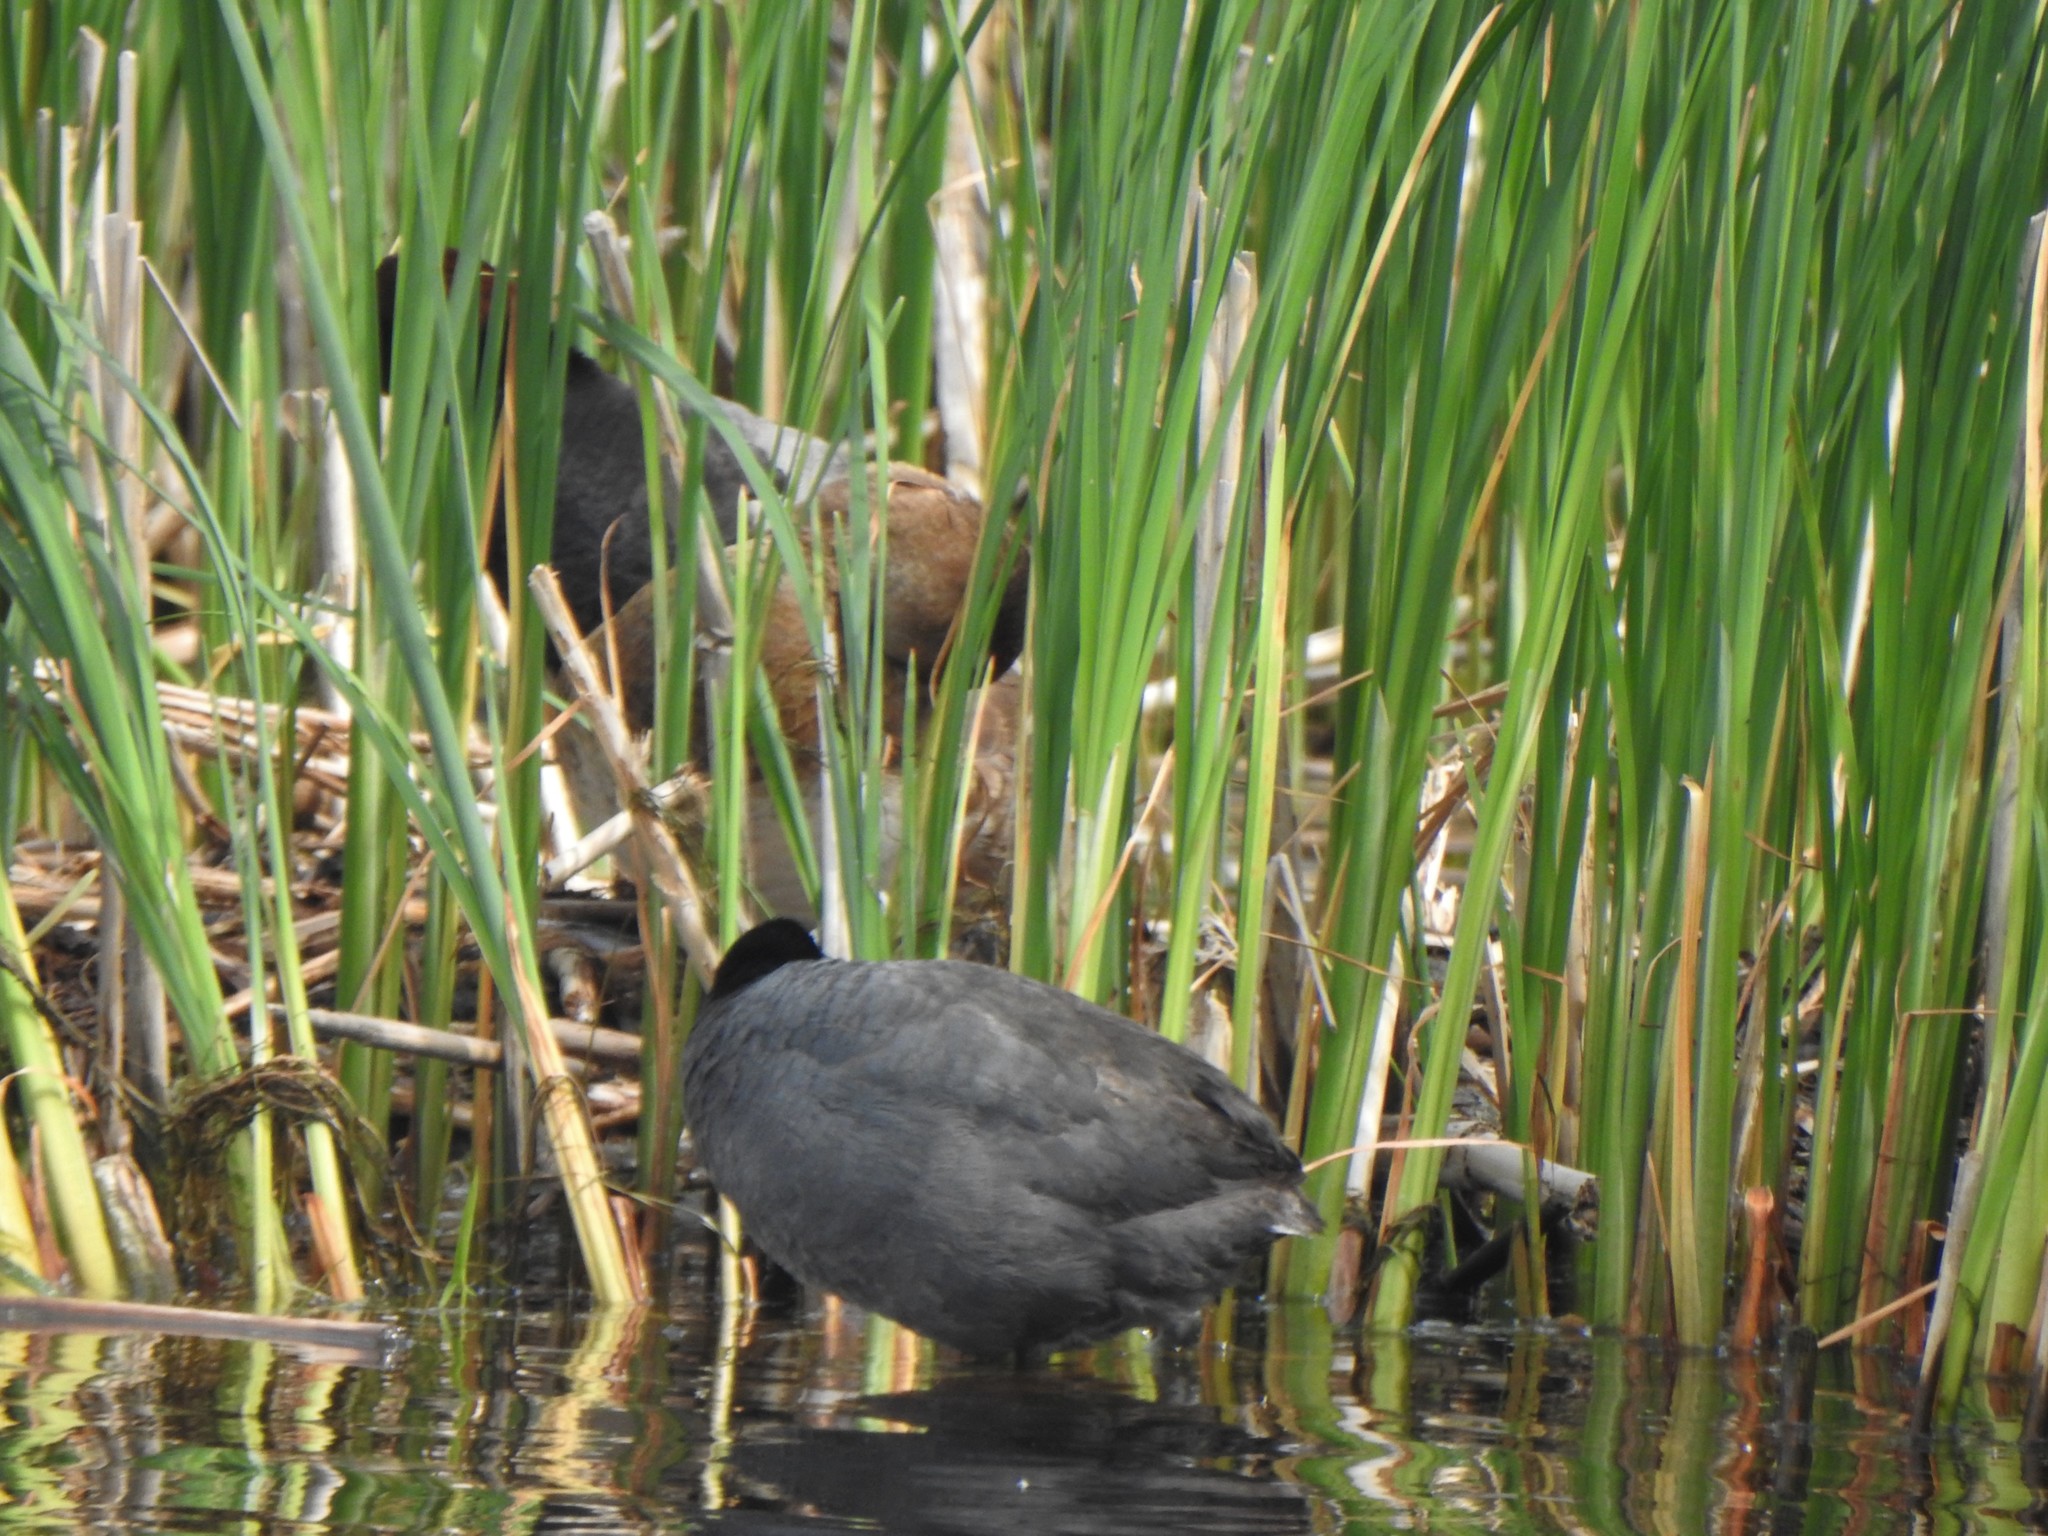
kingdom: Animalia
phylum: Chordata
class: Aves
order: Gruiformes
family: Rallidae
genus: Fulica
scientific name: Fulica americana
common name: American coot
